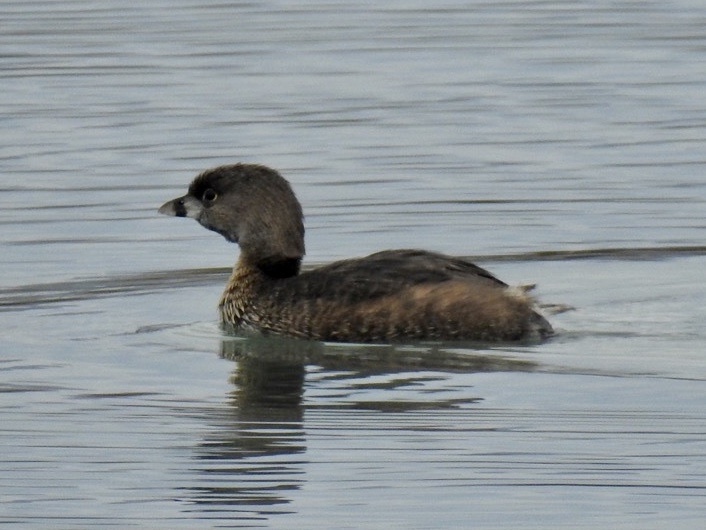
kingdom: Animalia
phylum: Chordata
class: Aves
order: Podicipediformes
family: Podicipedidae
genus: Podilymbus
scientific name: Podilymbus podiceps
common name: Pied-billed grebe
